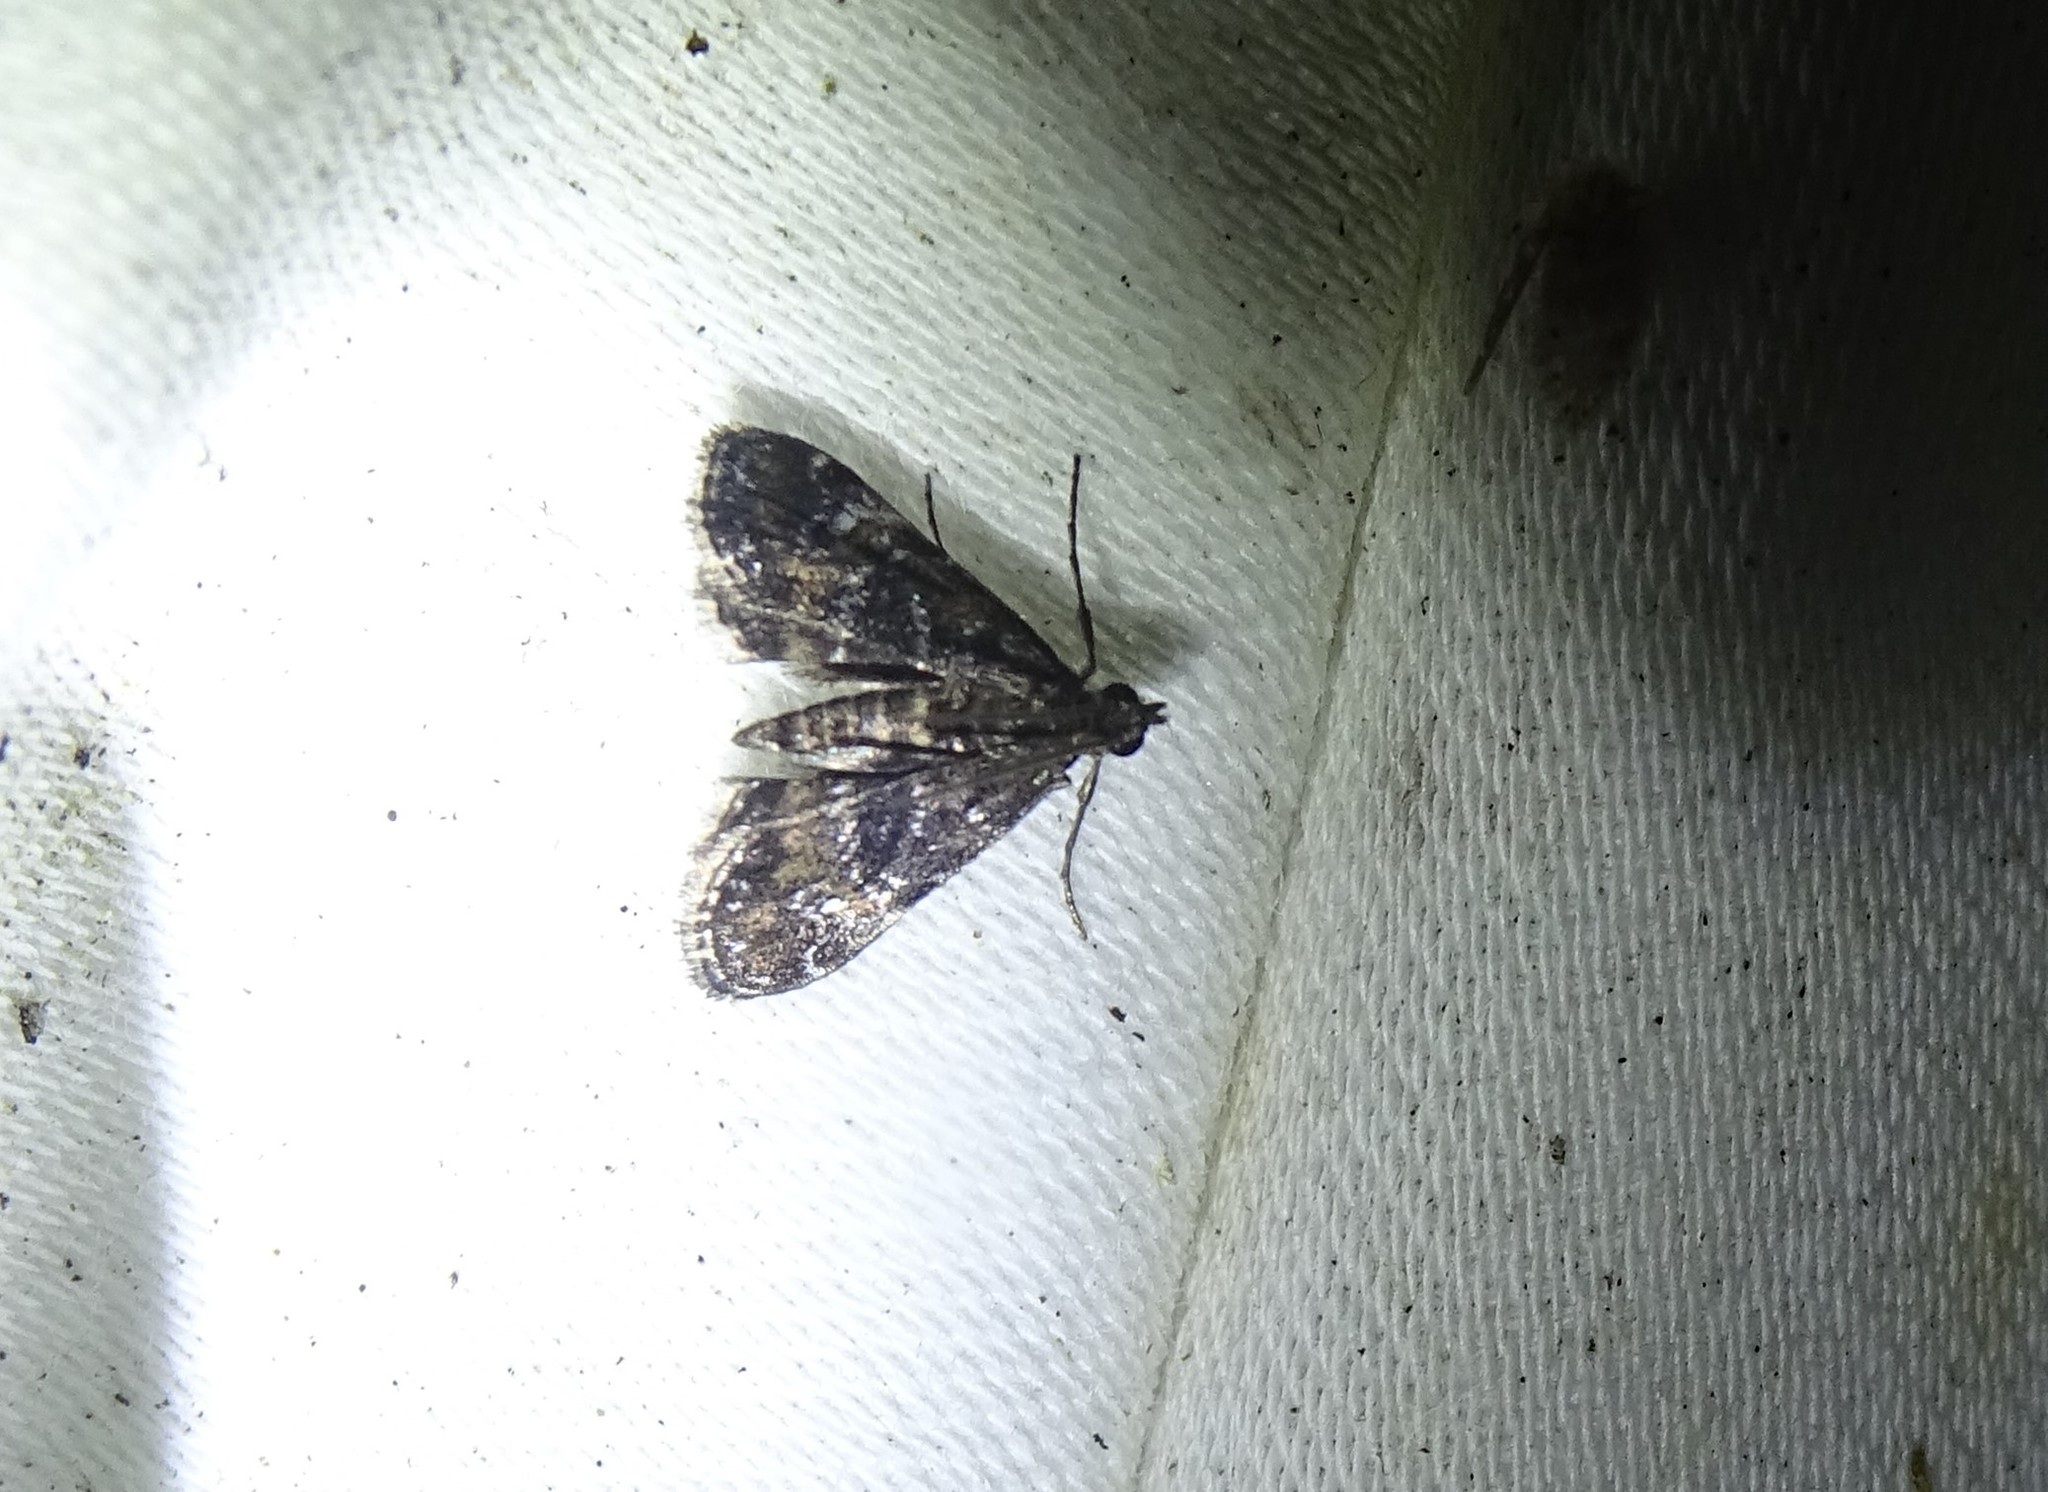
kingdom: Animalia
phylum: Arthropoda
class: Insecta
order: Lepidoptera
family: Crambidae
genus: Elophila
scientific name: Elophila obliteralis
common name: Waterlily leafcutter moth
